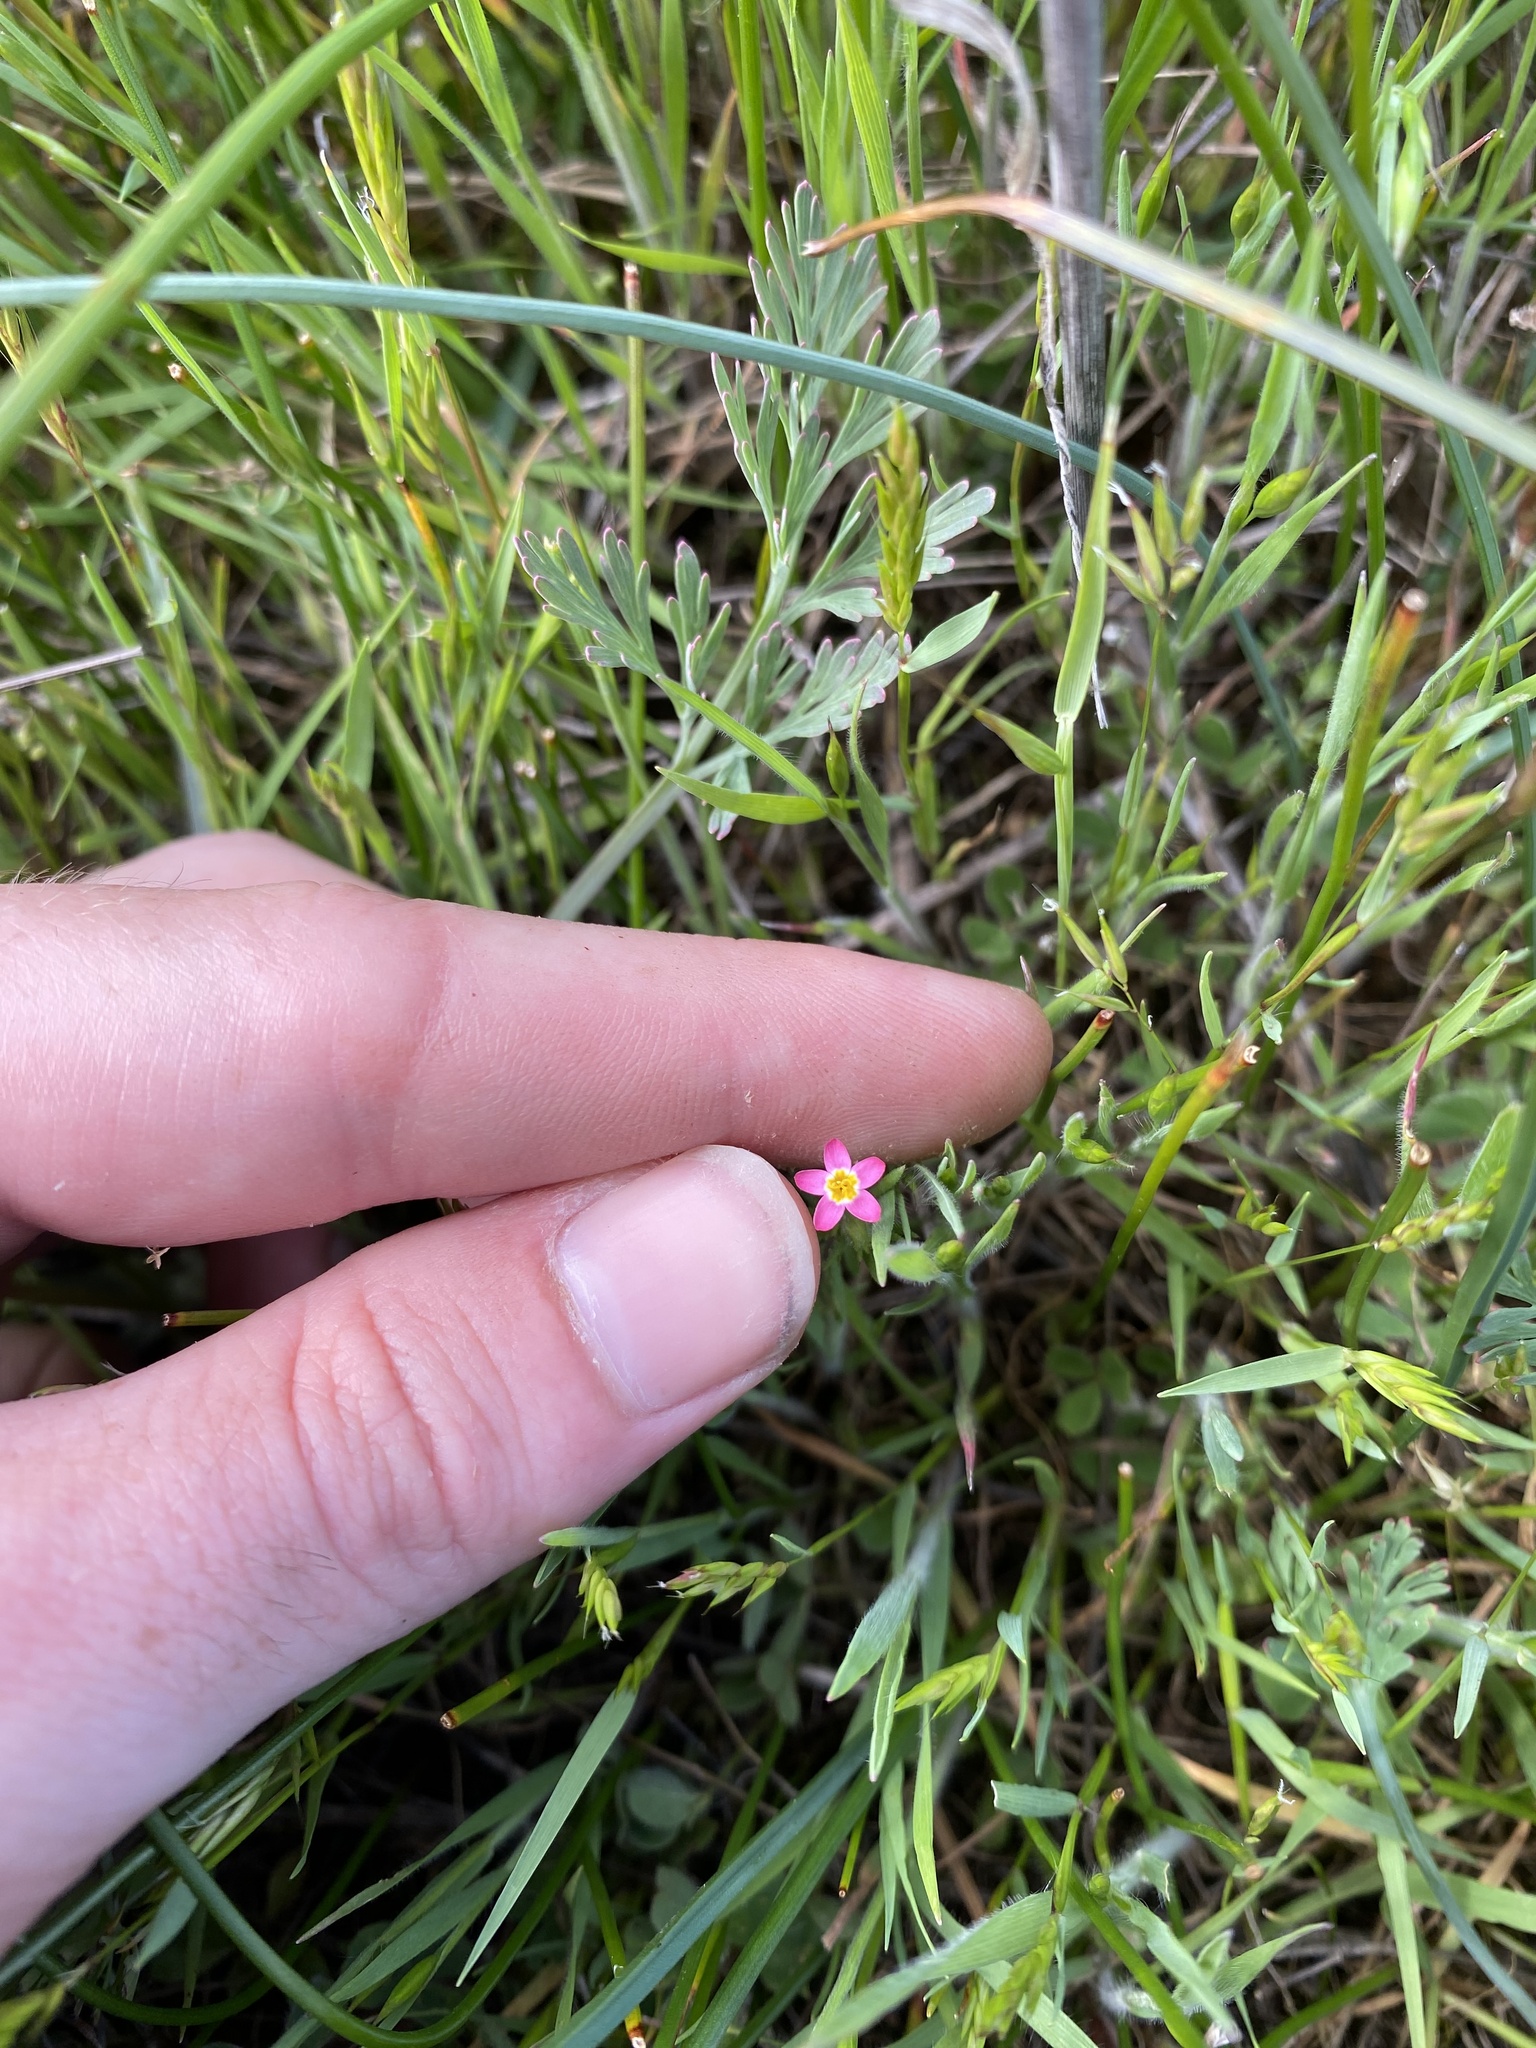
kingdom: Plantae
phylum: Tracheophyta
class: Magnoliopsida
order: Ericales
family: Polemoniaceae
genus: Leptosiphon
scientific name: Leptosiphon bicolor
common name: True babystars
